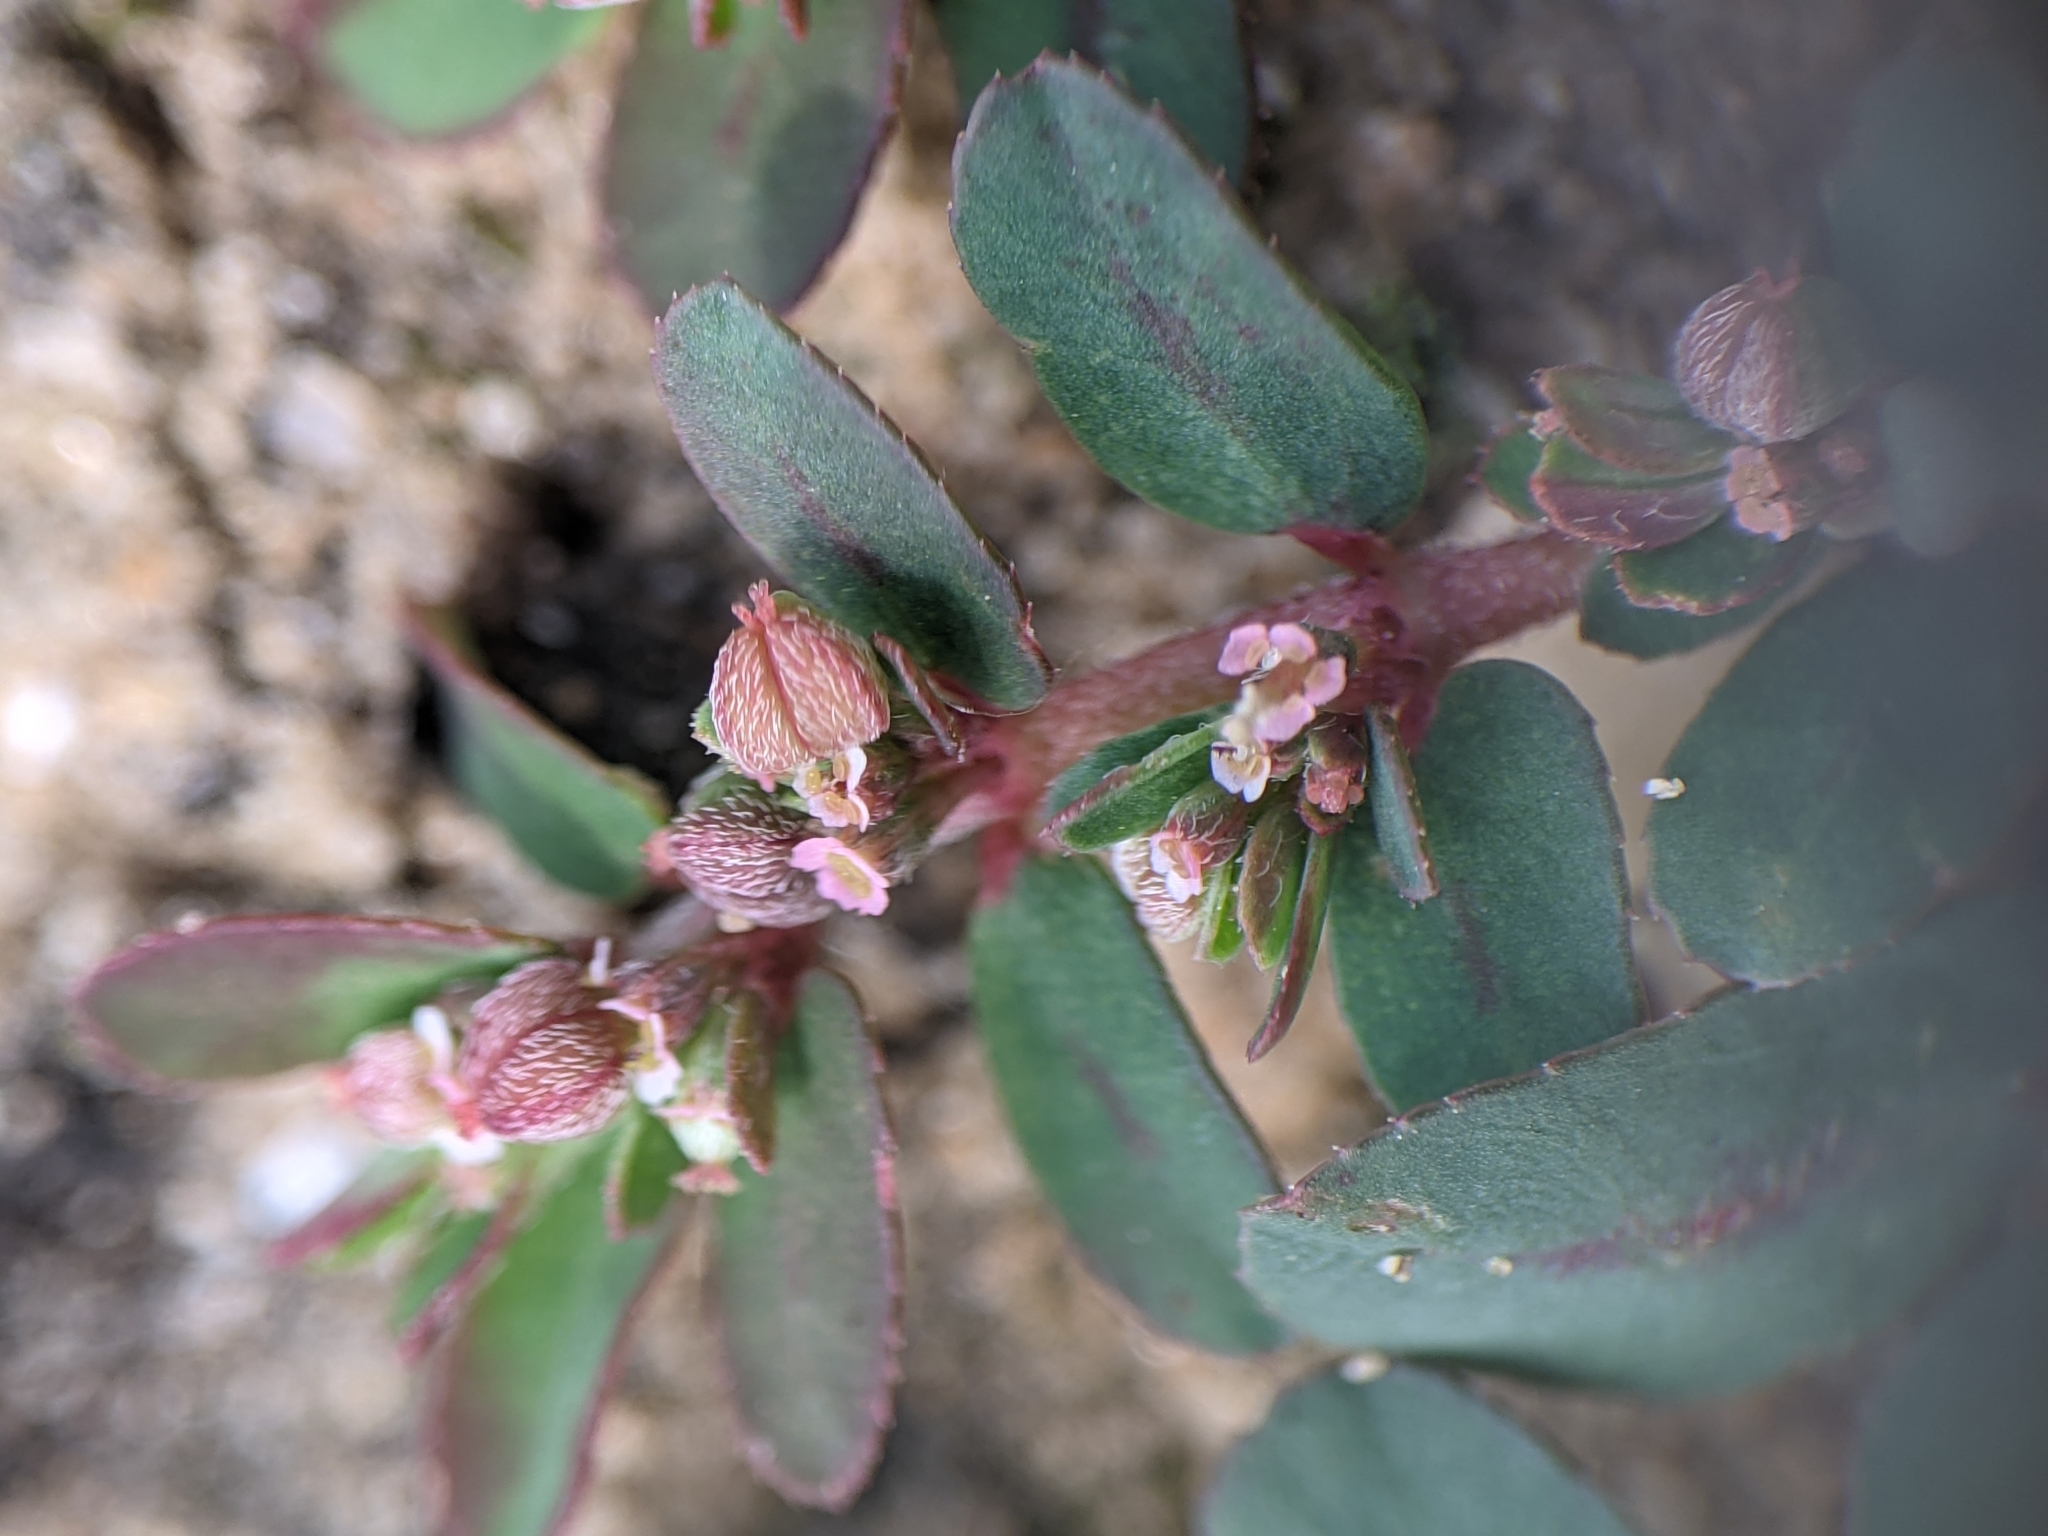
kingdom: Plantae
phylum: Tracheophyta
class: Magnoliopsida
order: Malpighiales
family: Euphorbiaceae
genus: Euphorbia
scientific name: Euphorbia maculata
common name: Spotted spurge
